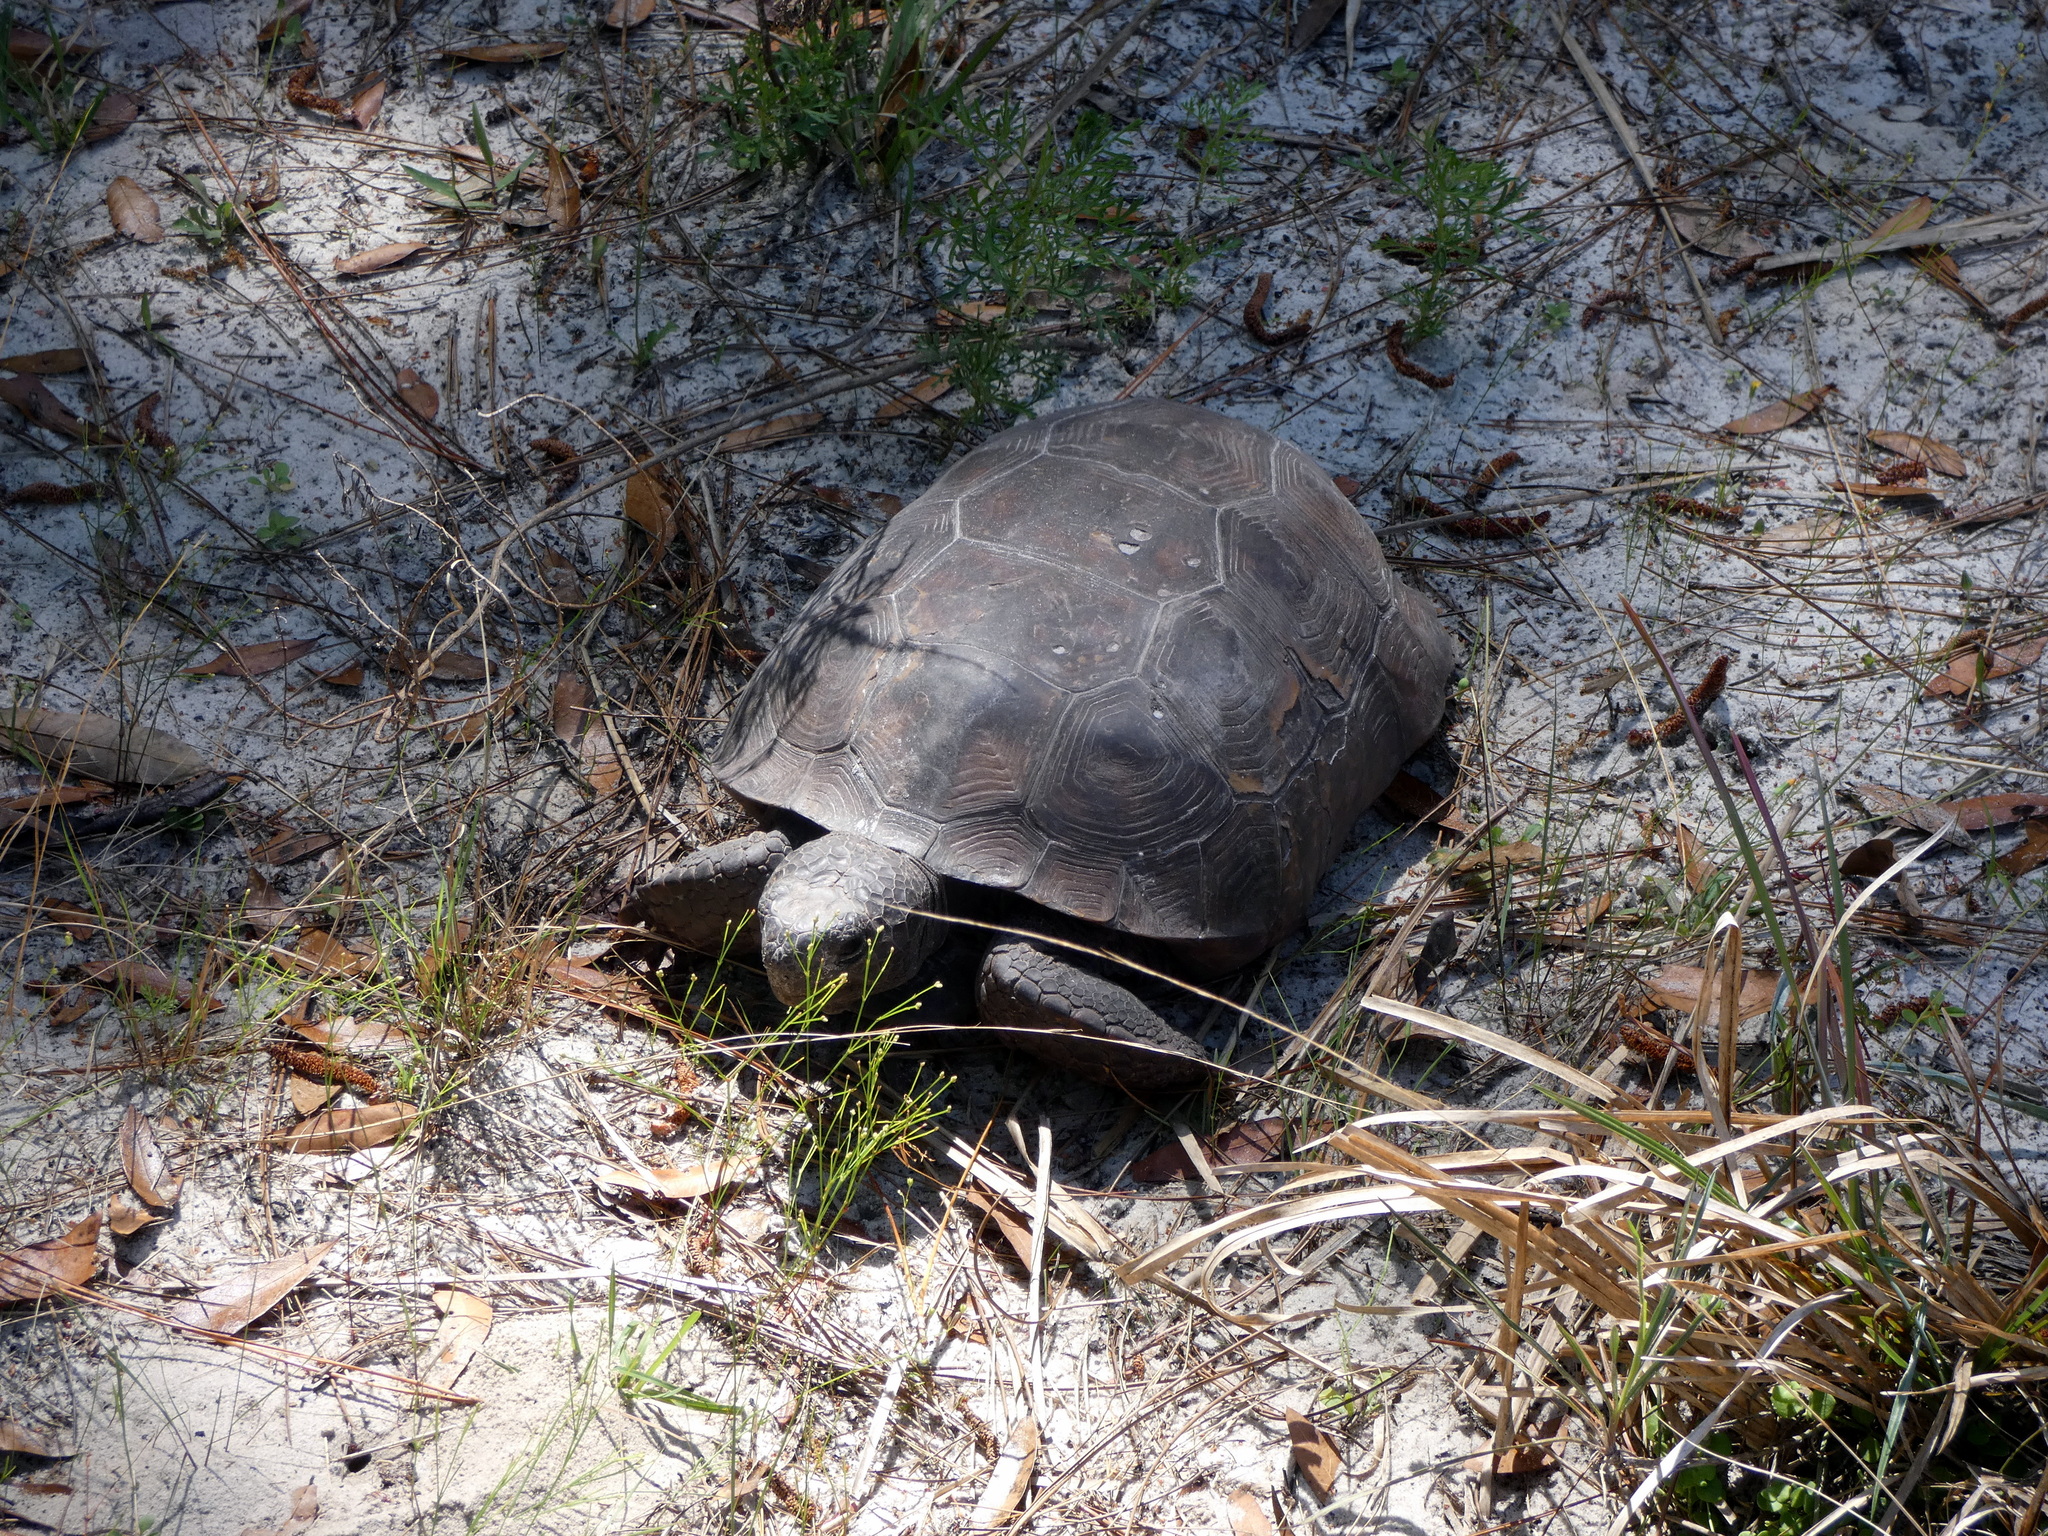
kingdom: Animalia
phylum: Chordata
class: Testudines
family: Testudinidae
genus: Gopherus
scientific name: Gopherus polyphemus
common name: Florida gopher tortoise
